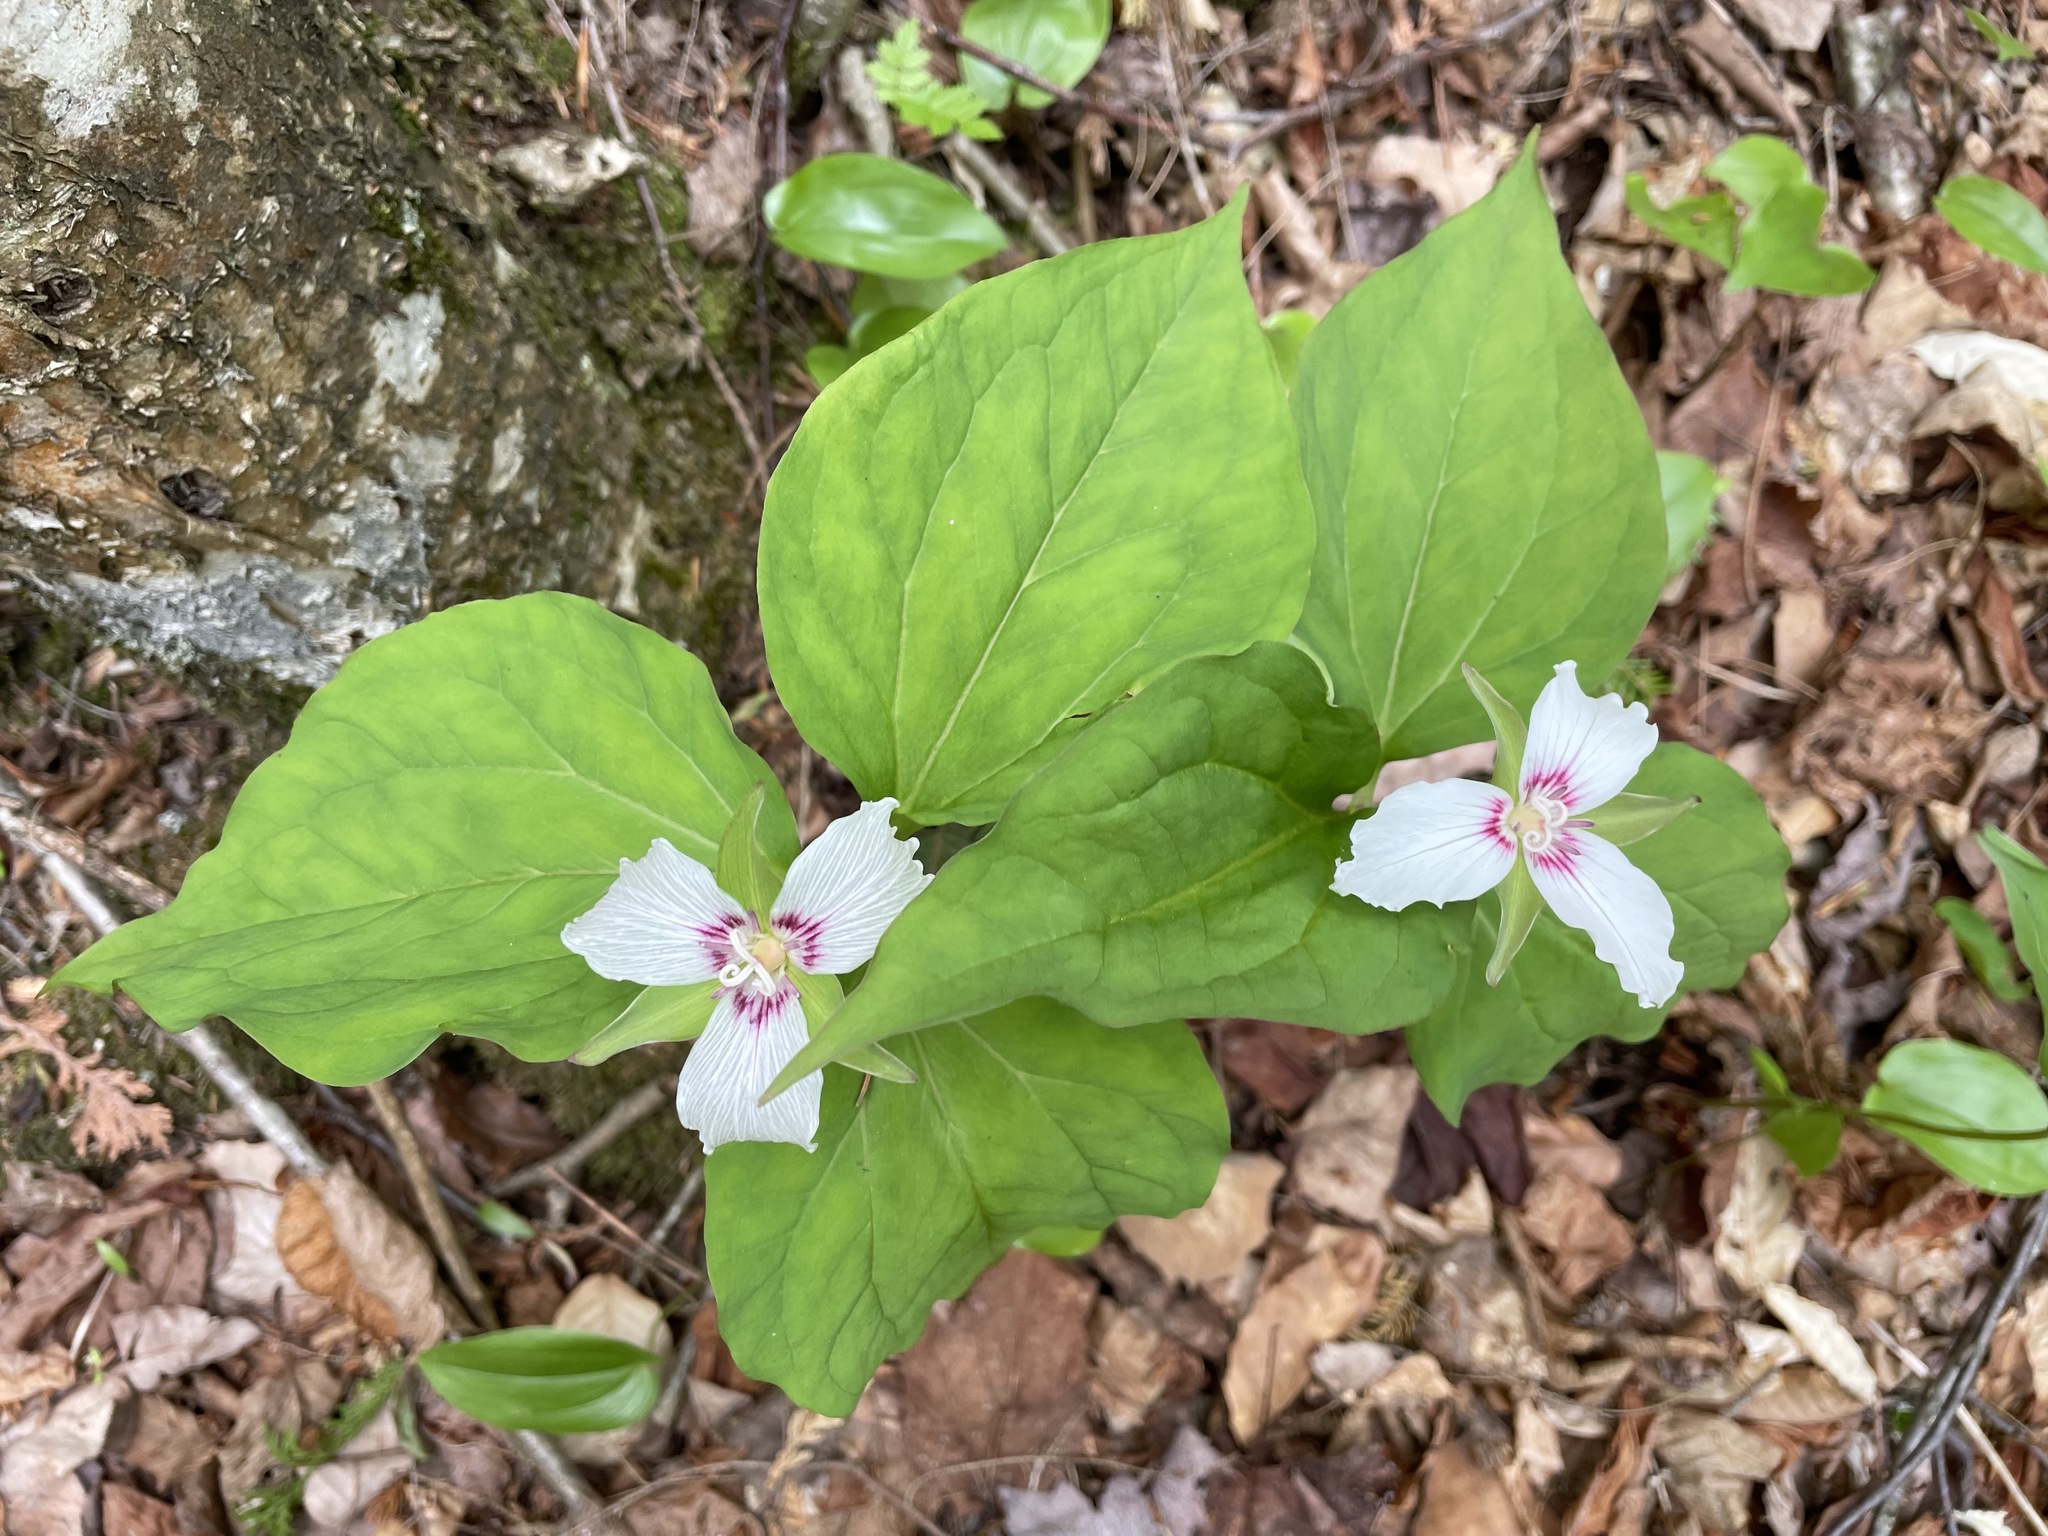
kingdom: Plantae
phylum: Tracheophyta
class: Liliopsida
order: Liliales
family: Melanthiaceae
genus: Trillium
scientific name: Trillium undulatum
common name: Paint trillium
